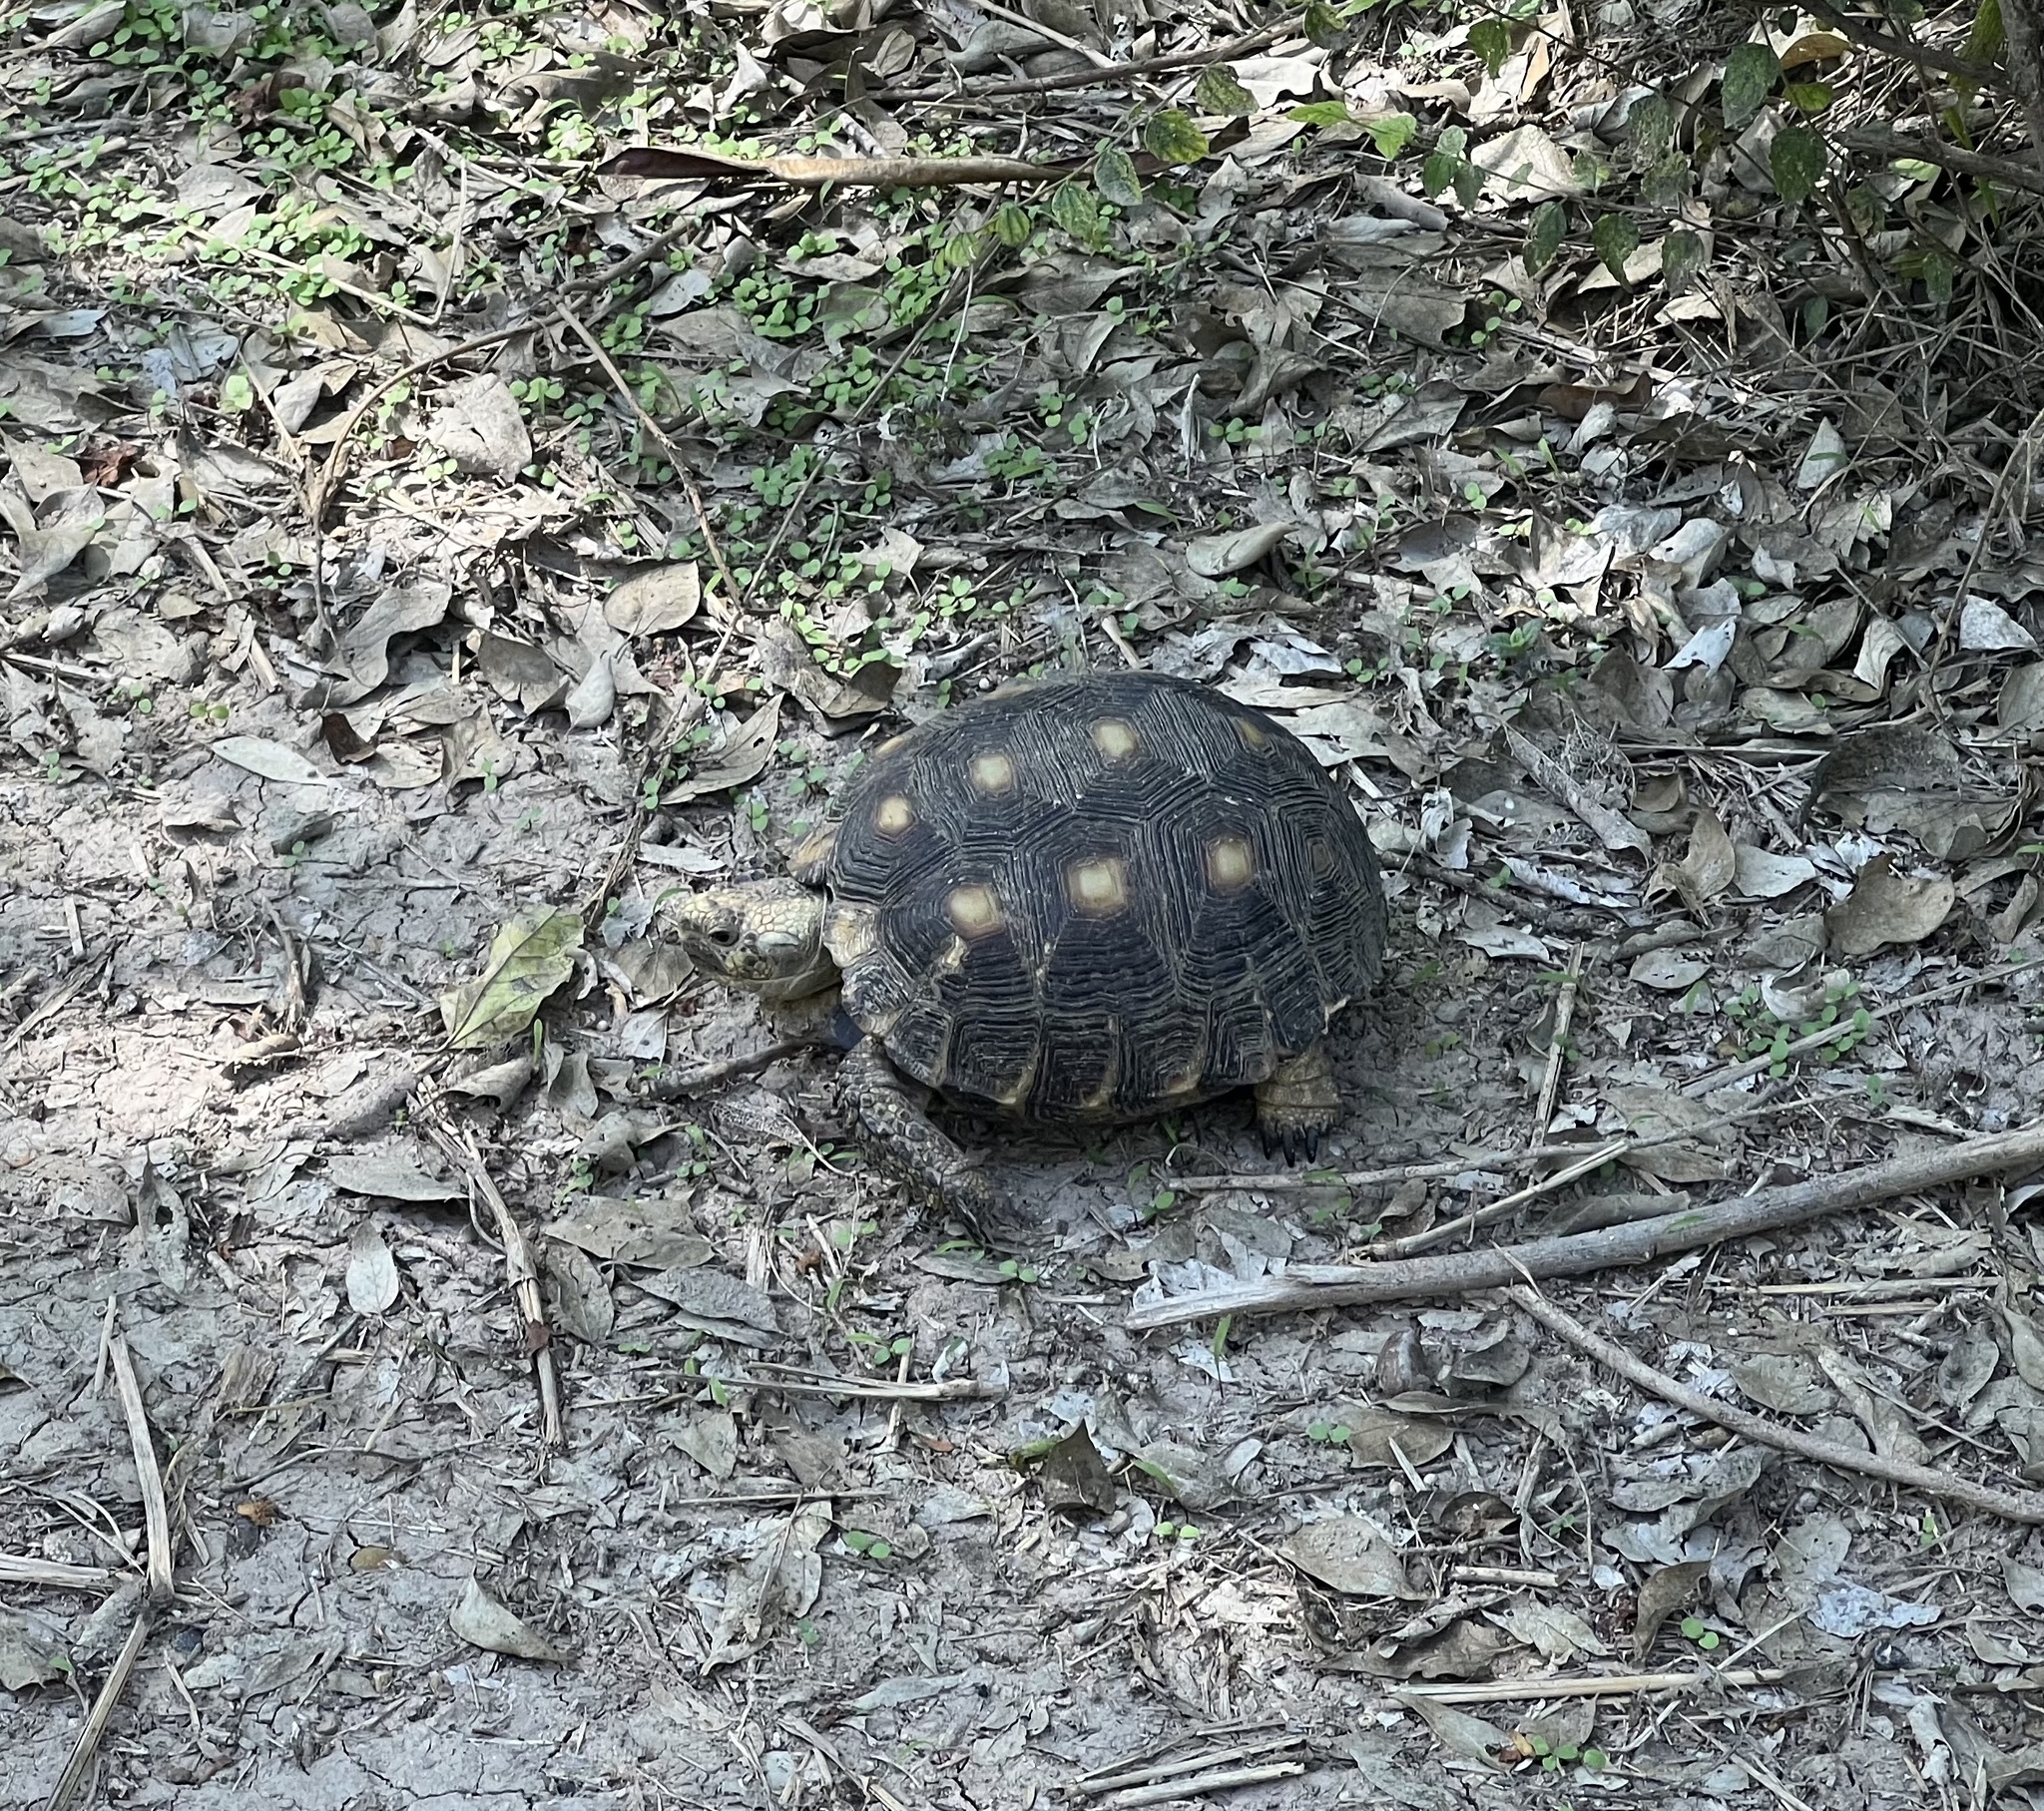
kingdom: Animalia
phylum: Chordata
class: Testudines
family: Testudinidae
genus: Gopherus
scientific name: Gopherus berlandieri
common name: Texas (gopher )tortoise
